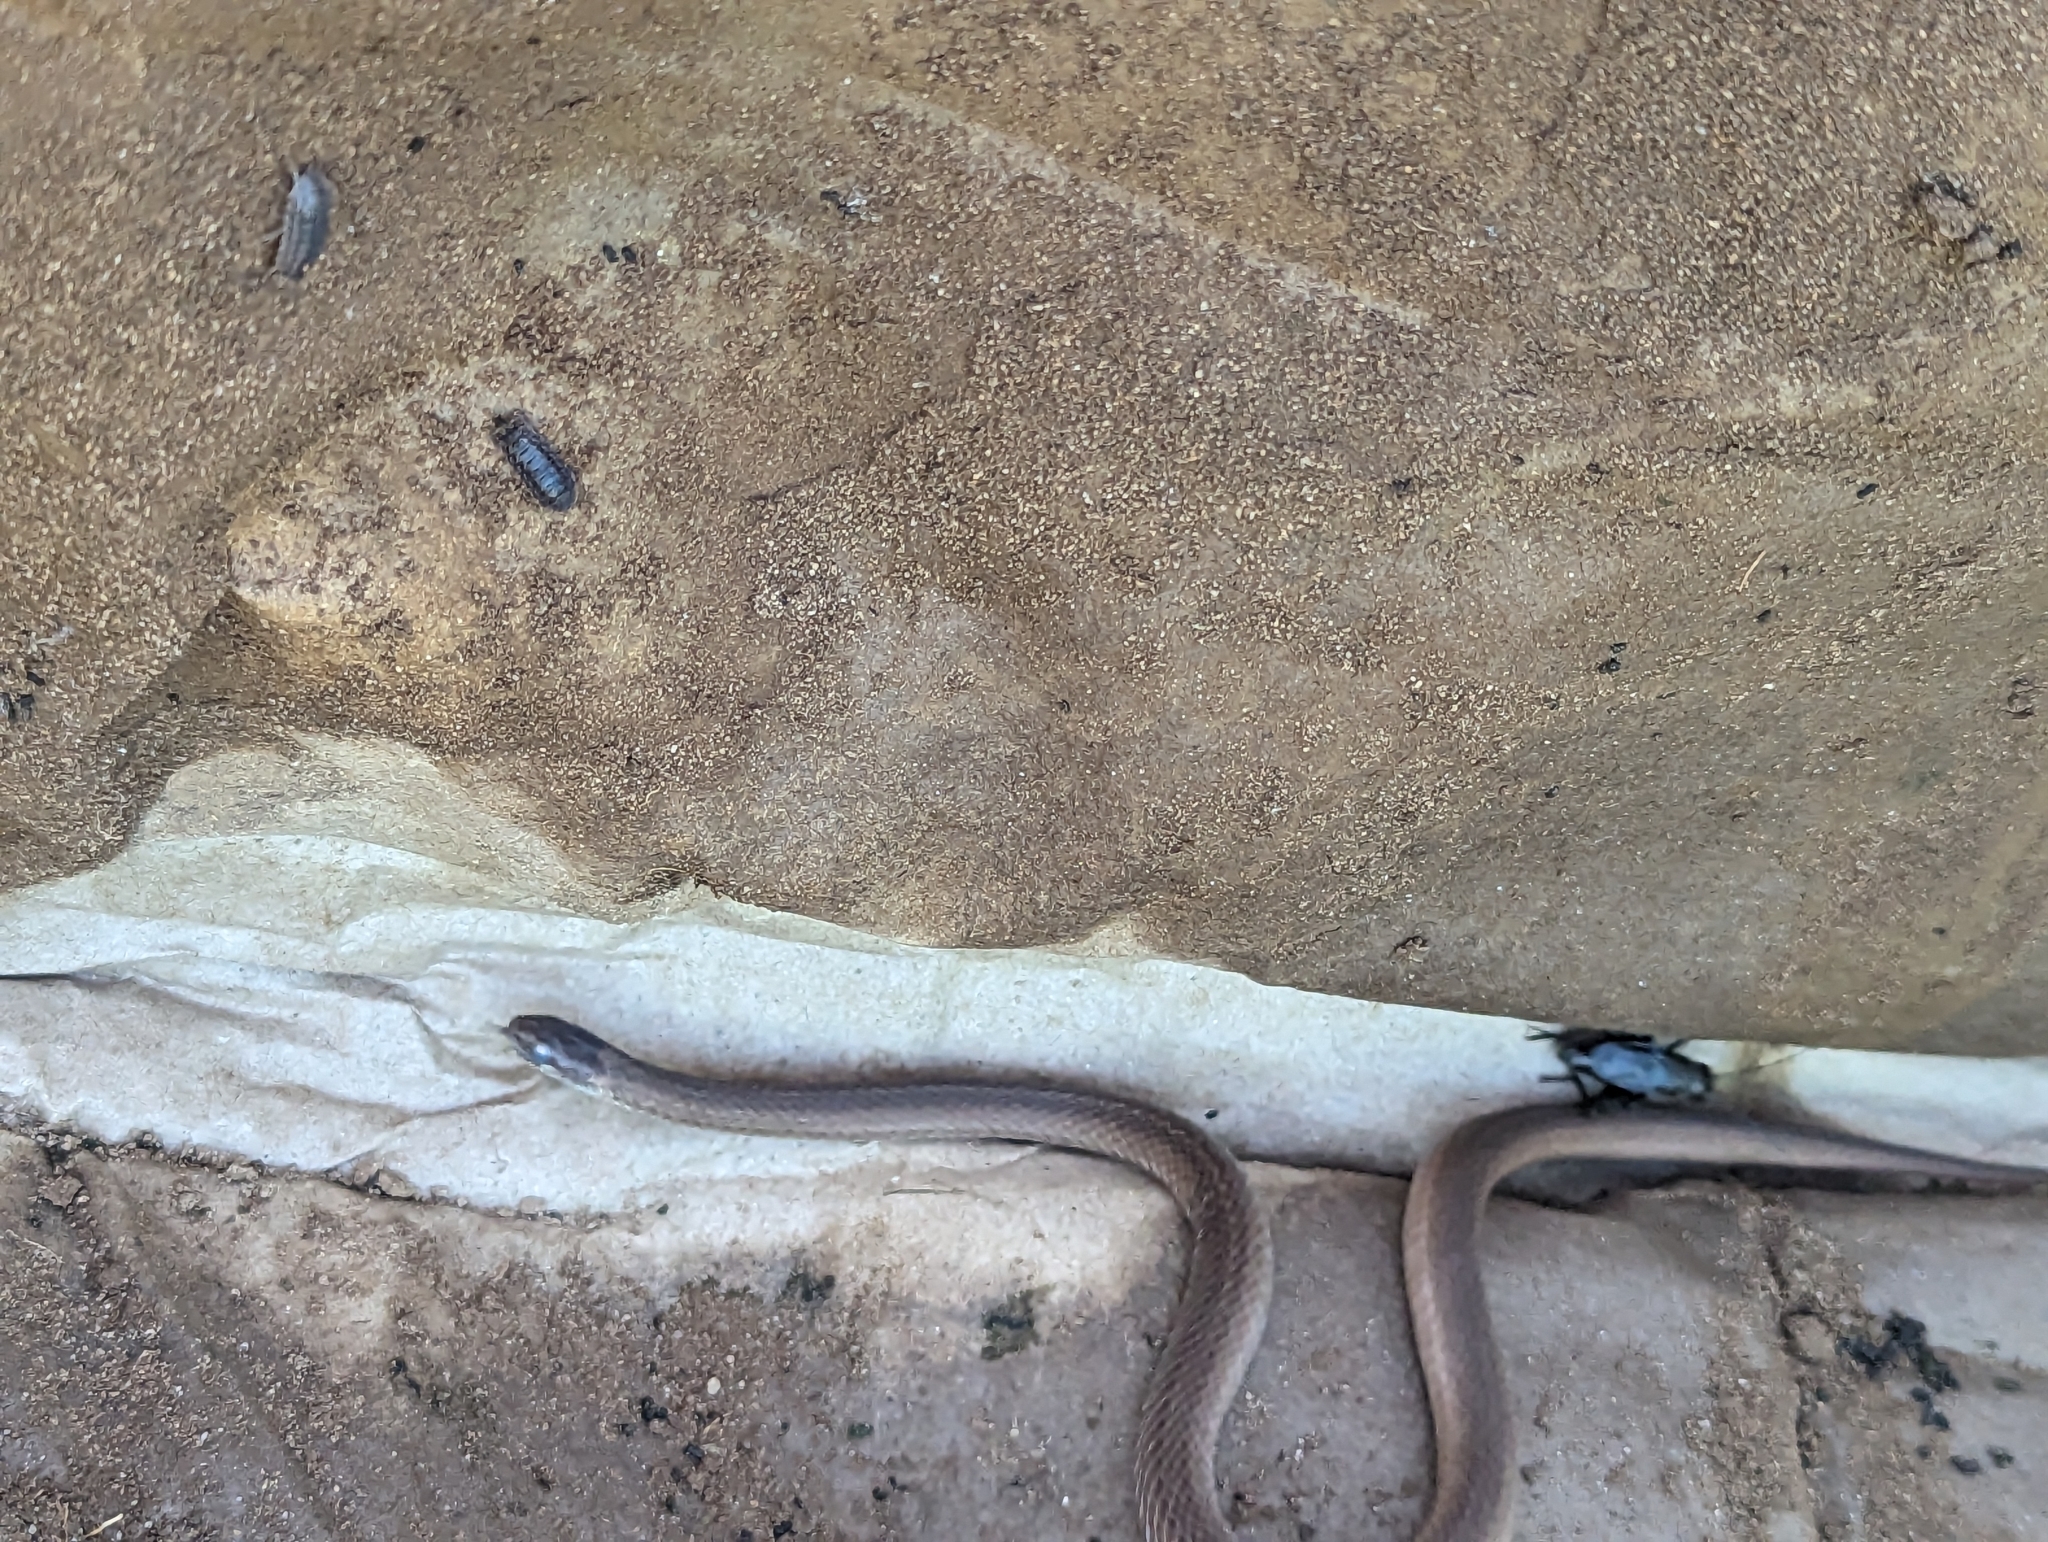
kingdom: Animalia
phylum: Chordata
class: Squamata
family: Colubridae
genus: Storeria
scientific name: Storeria occipitomaculata
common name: Redbelly snake
